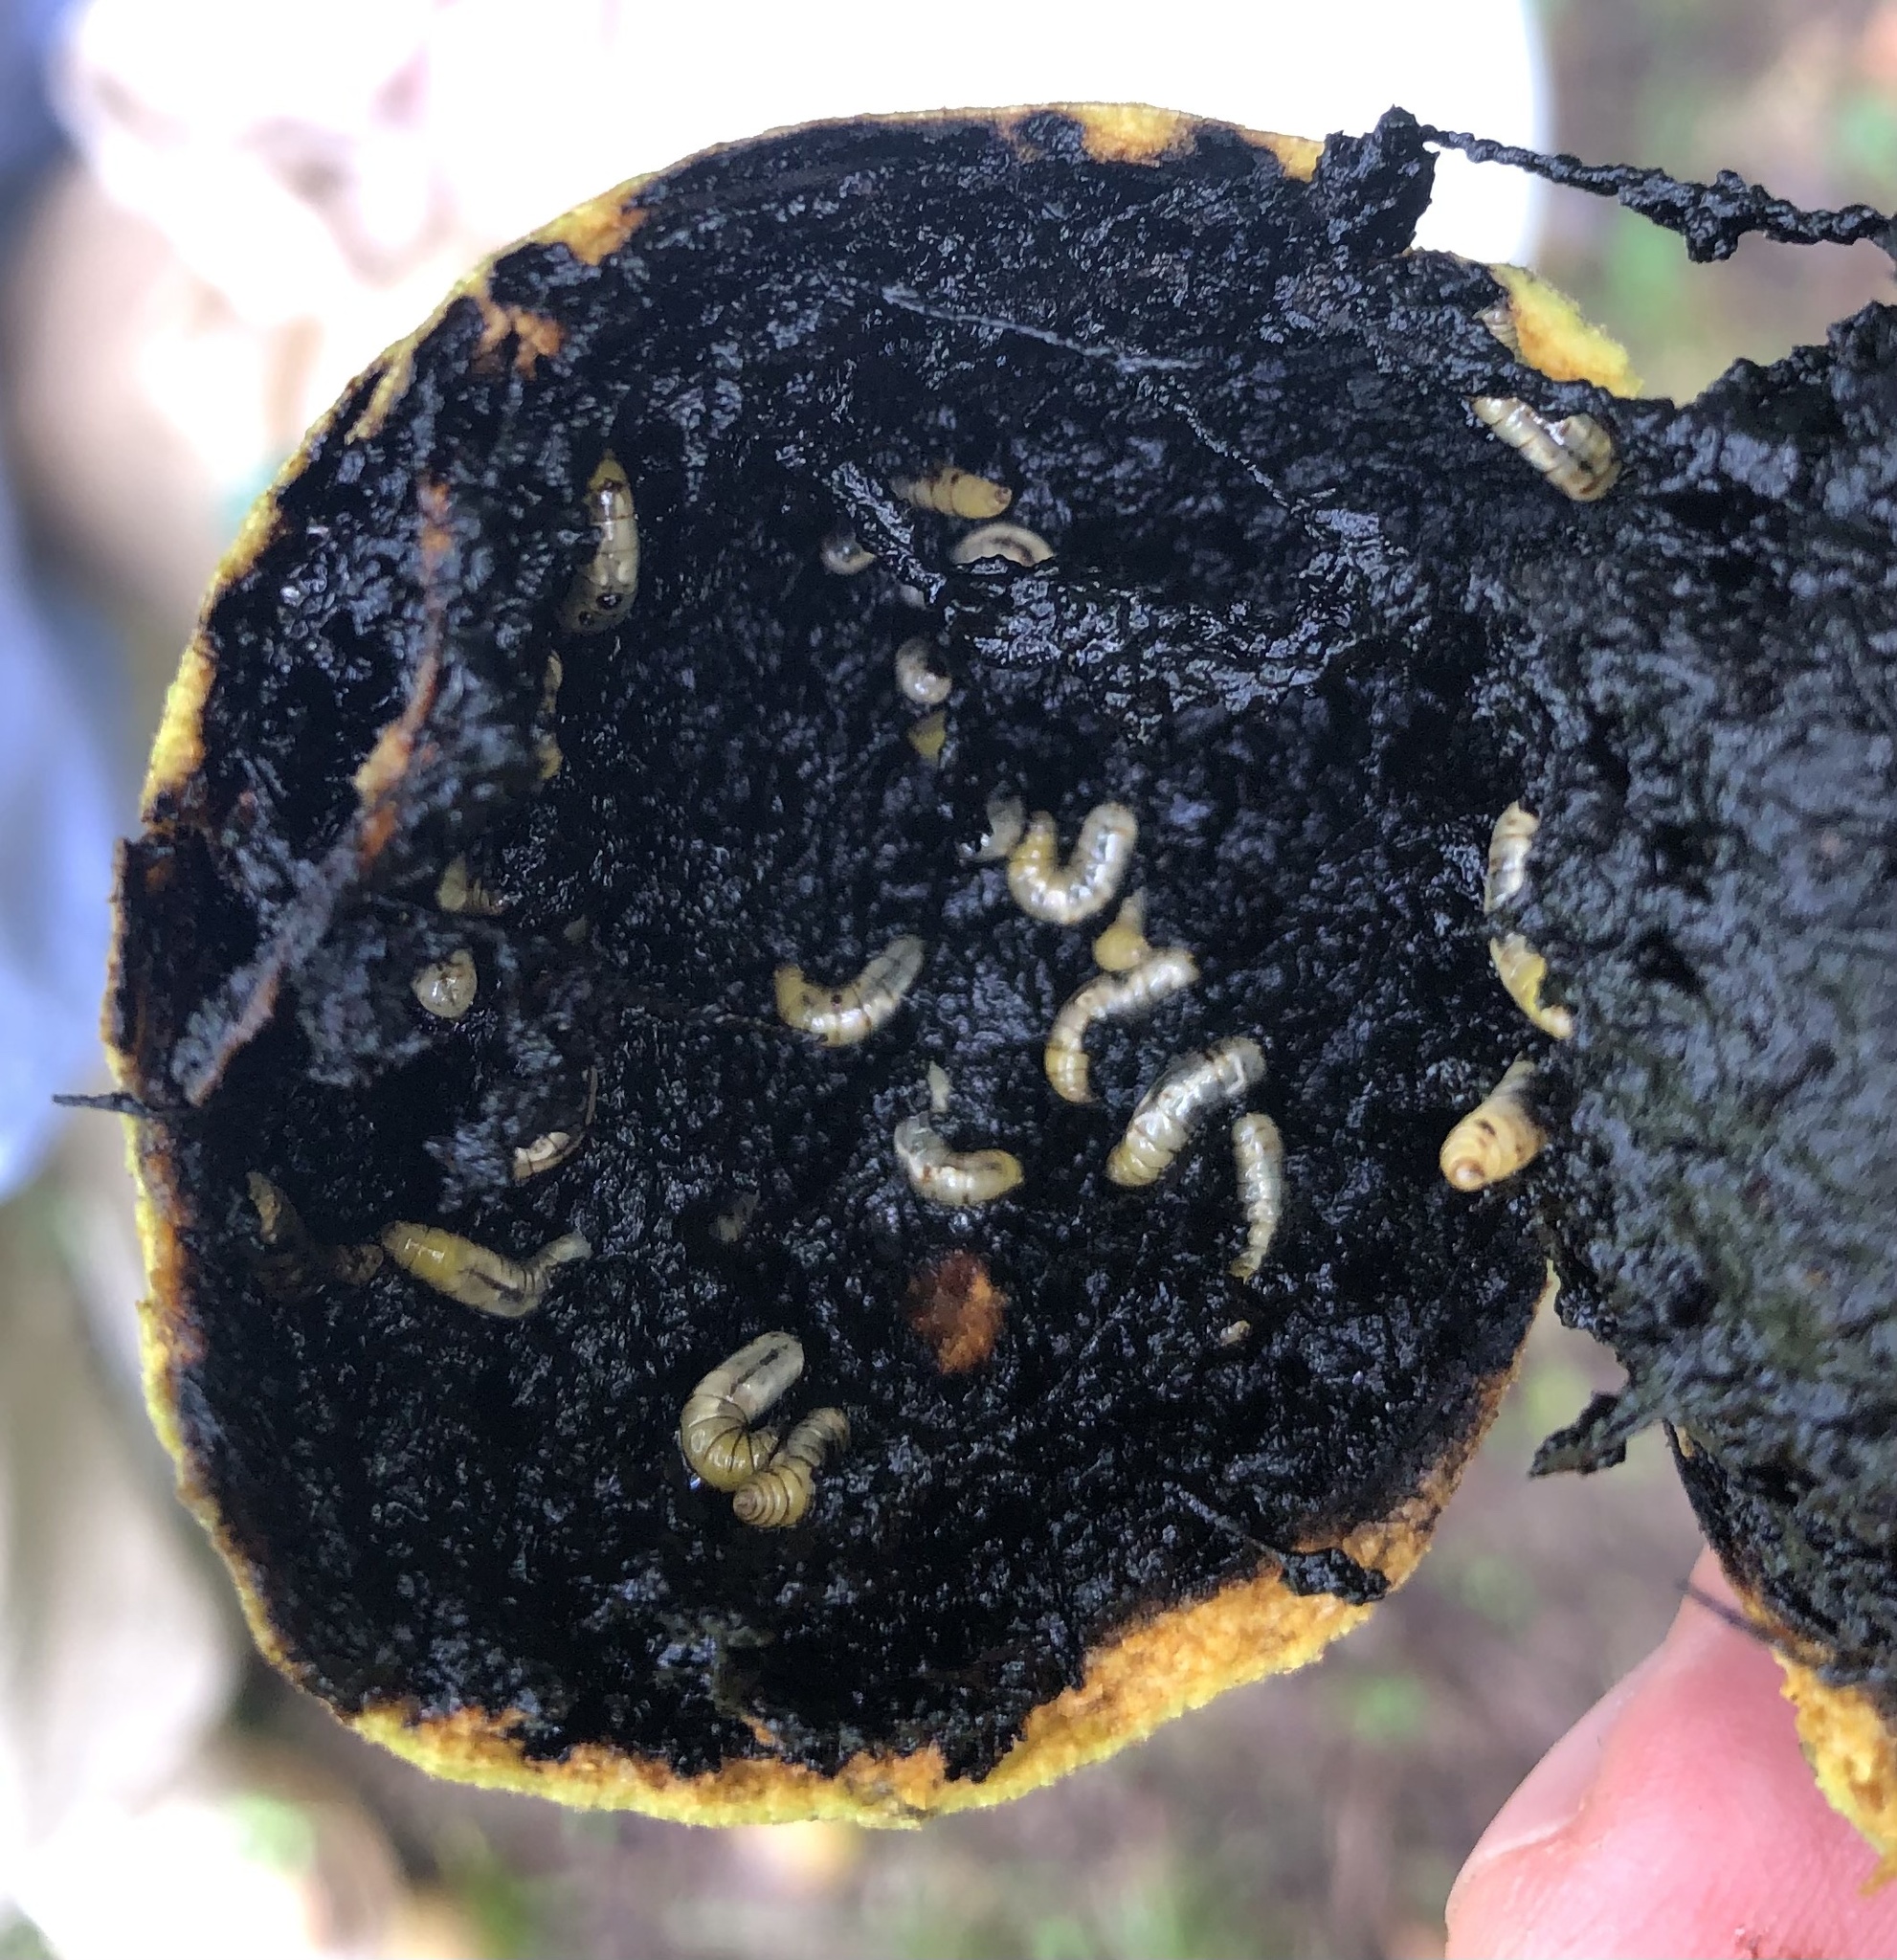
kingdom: Animalia
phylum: Arthropoda
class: Insecta
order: Diptera
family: Tephritidae
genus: Rhagoletis
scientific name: Rhagoletis suavis
